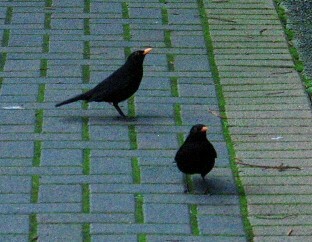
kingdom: Animalia
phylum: Chordata
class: Aves
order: Passeriformes
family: Turdidae
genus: Turdus
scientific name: Turdus merula
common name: Common blackbird
